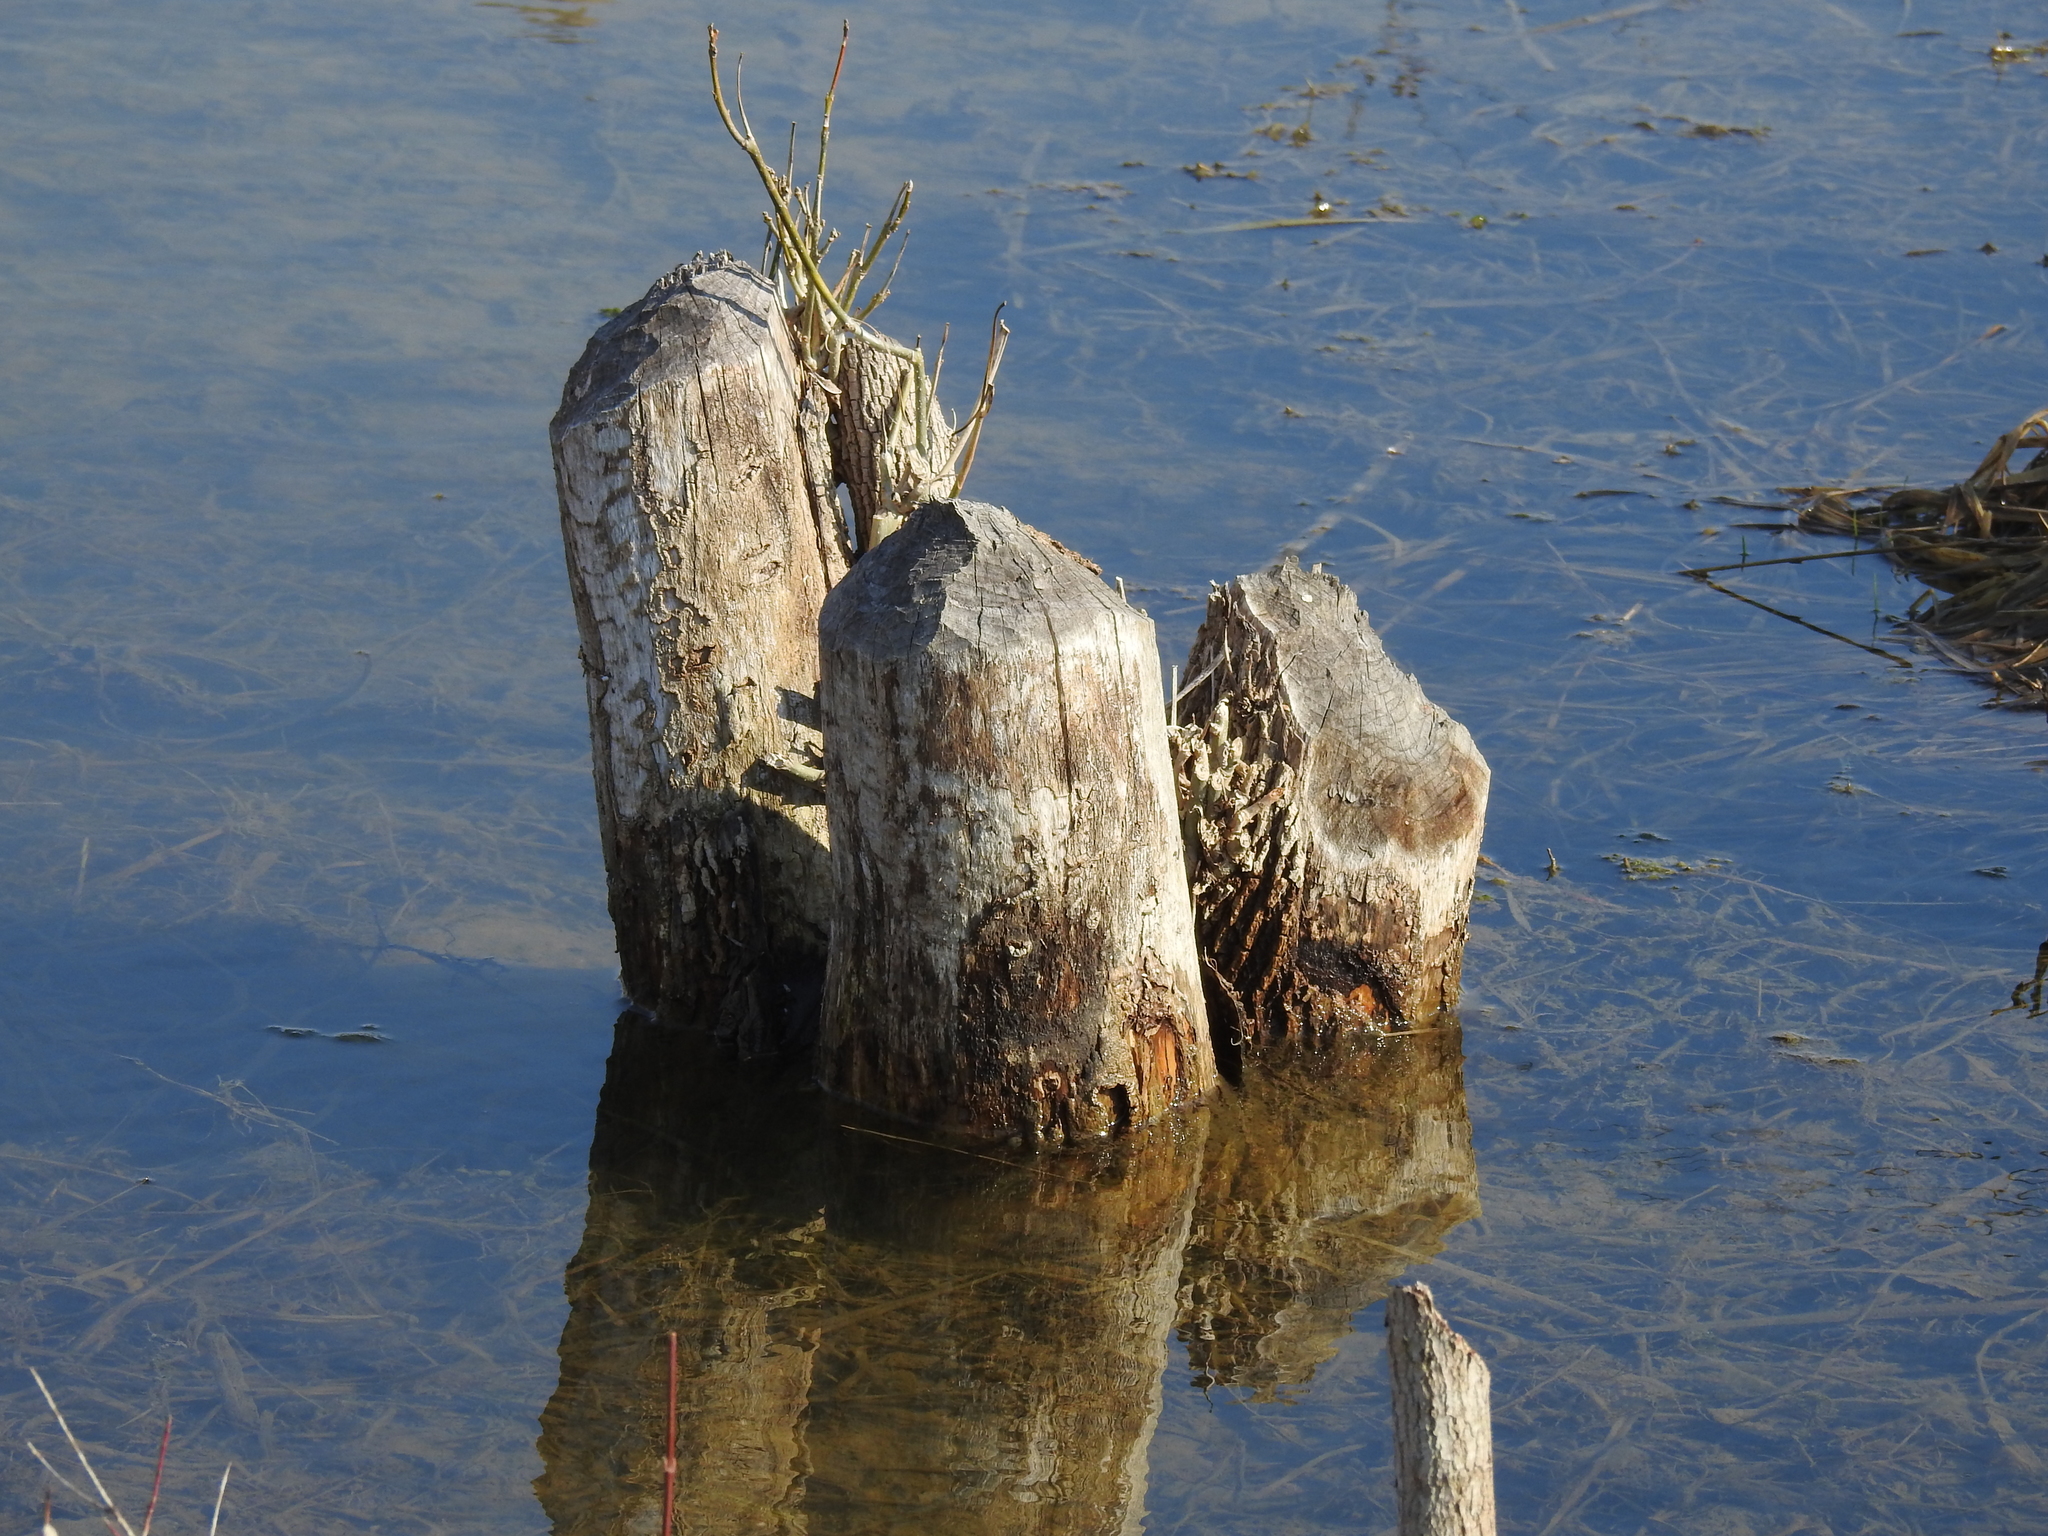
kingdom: Animalia
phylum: Chordata
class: Mammalia
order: Rodentia
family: Castoridae
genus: Castor
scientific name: Castor canadensis
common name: American beaver
